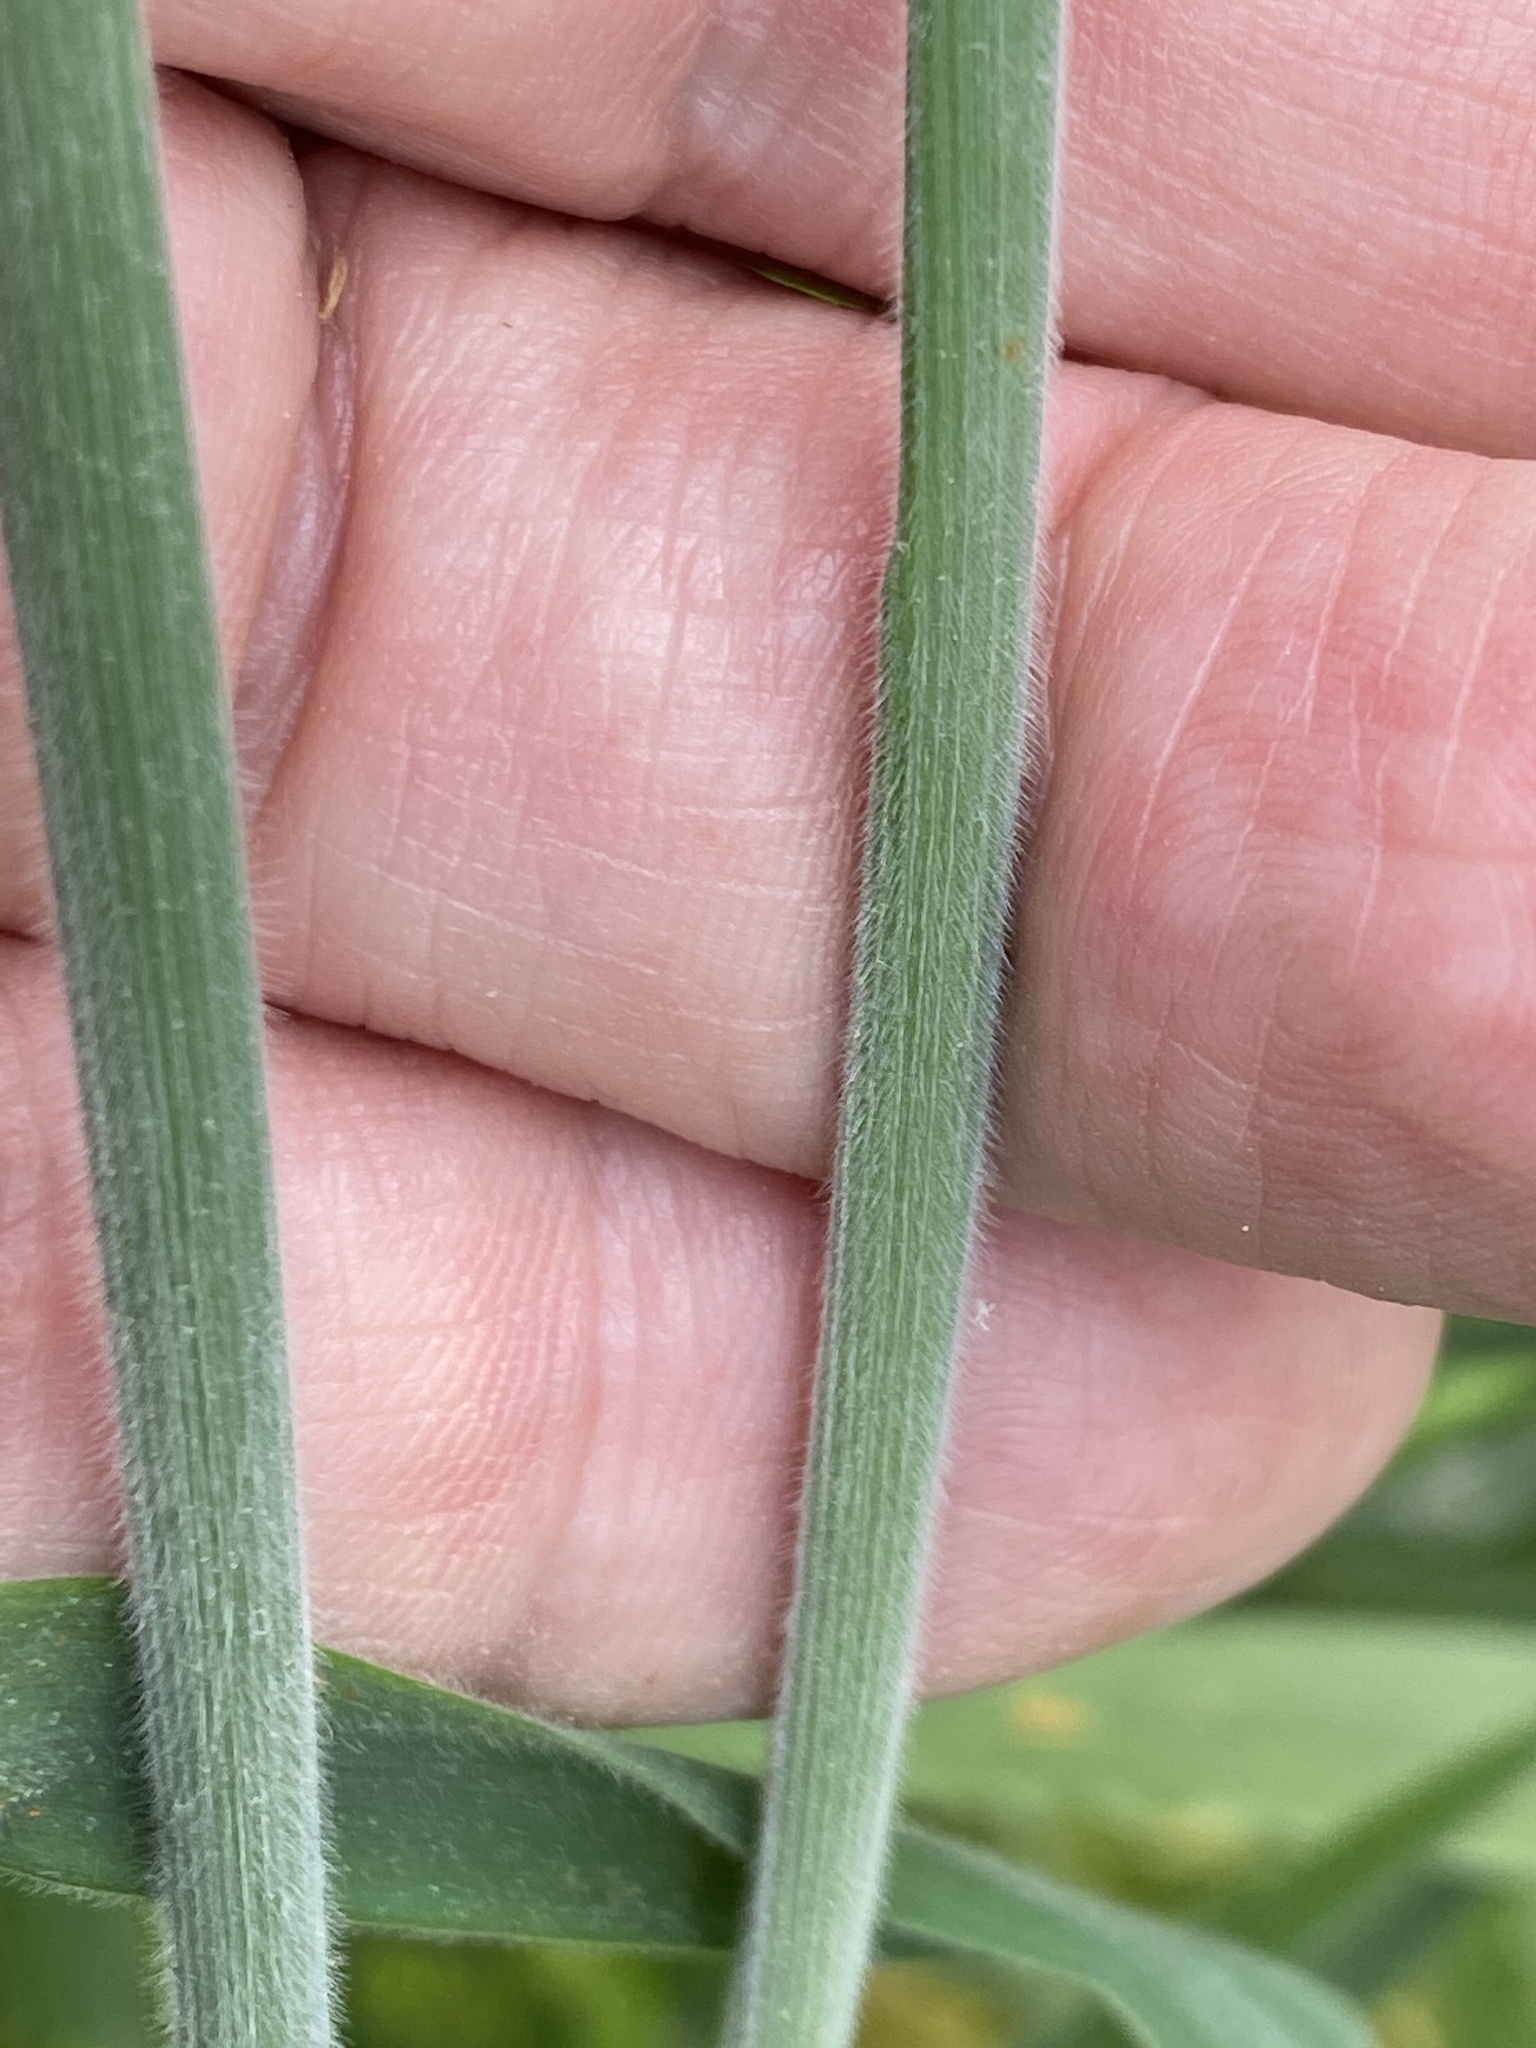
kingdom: Plantae
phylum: Tracheophyta
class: Liliopsida
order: Poales
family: Poaceae
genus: Holcus
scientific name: Holcus lanatus
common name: Yorkshire-fog
